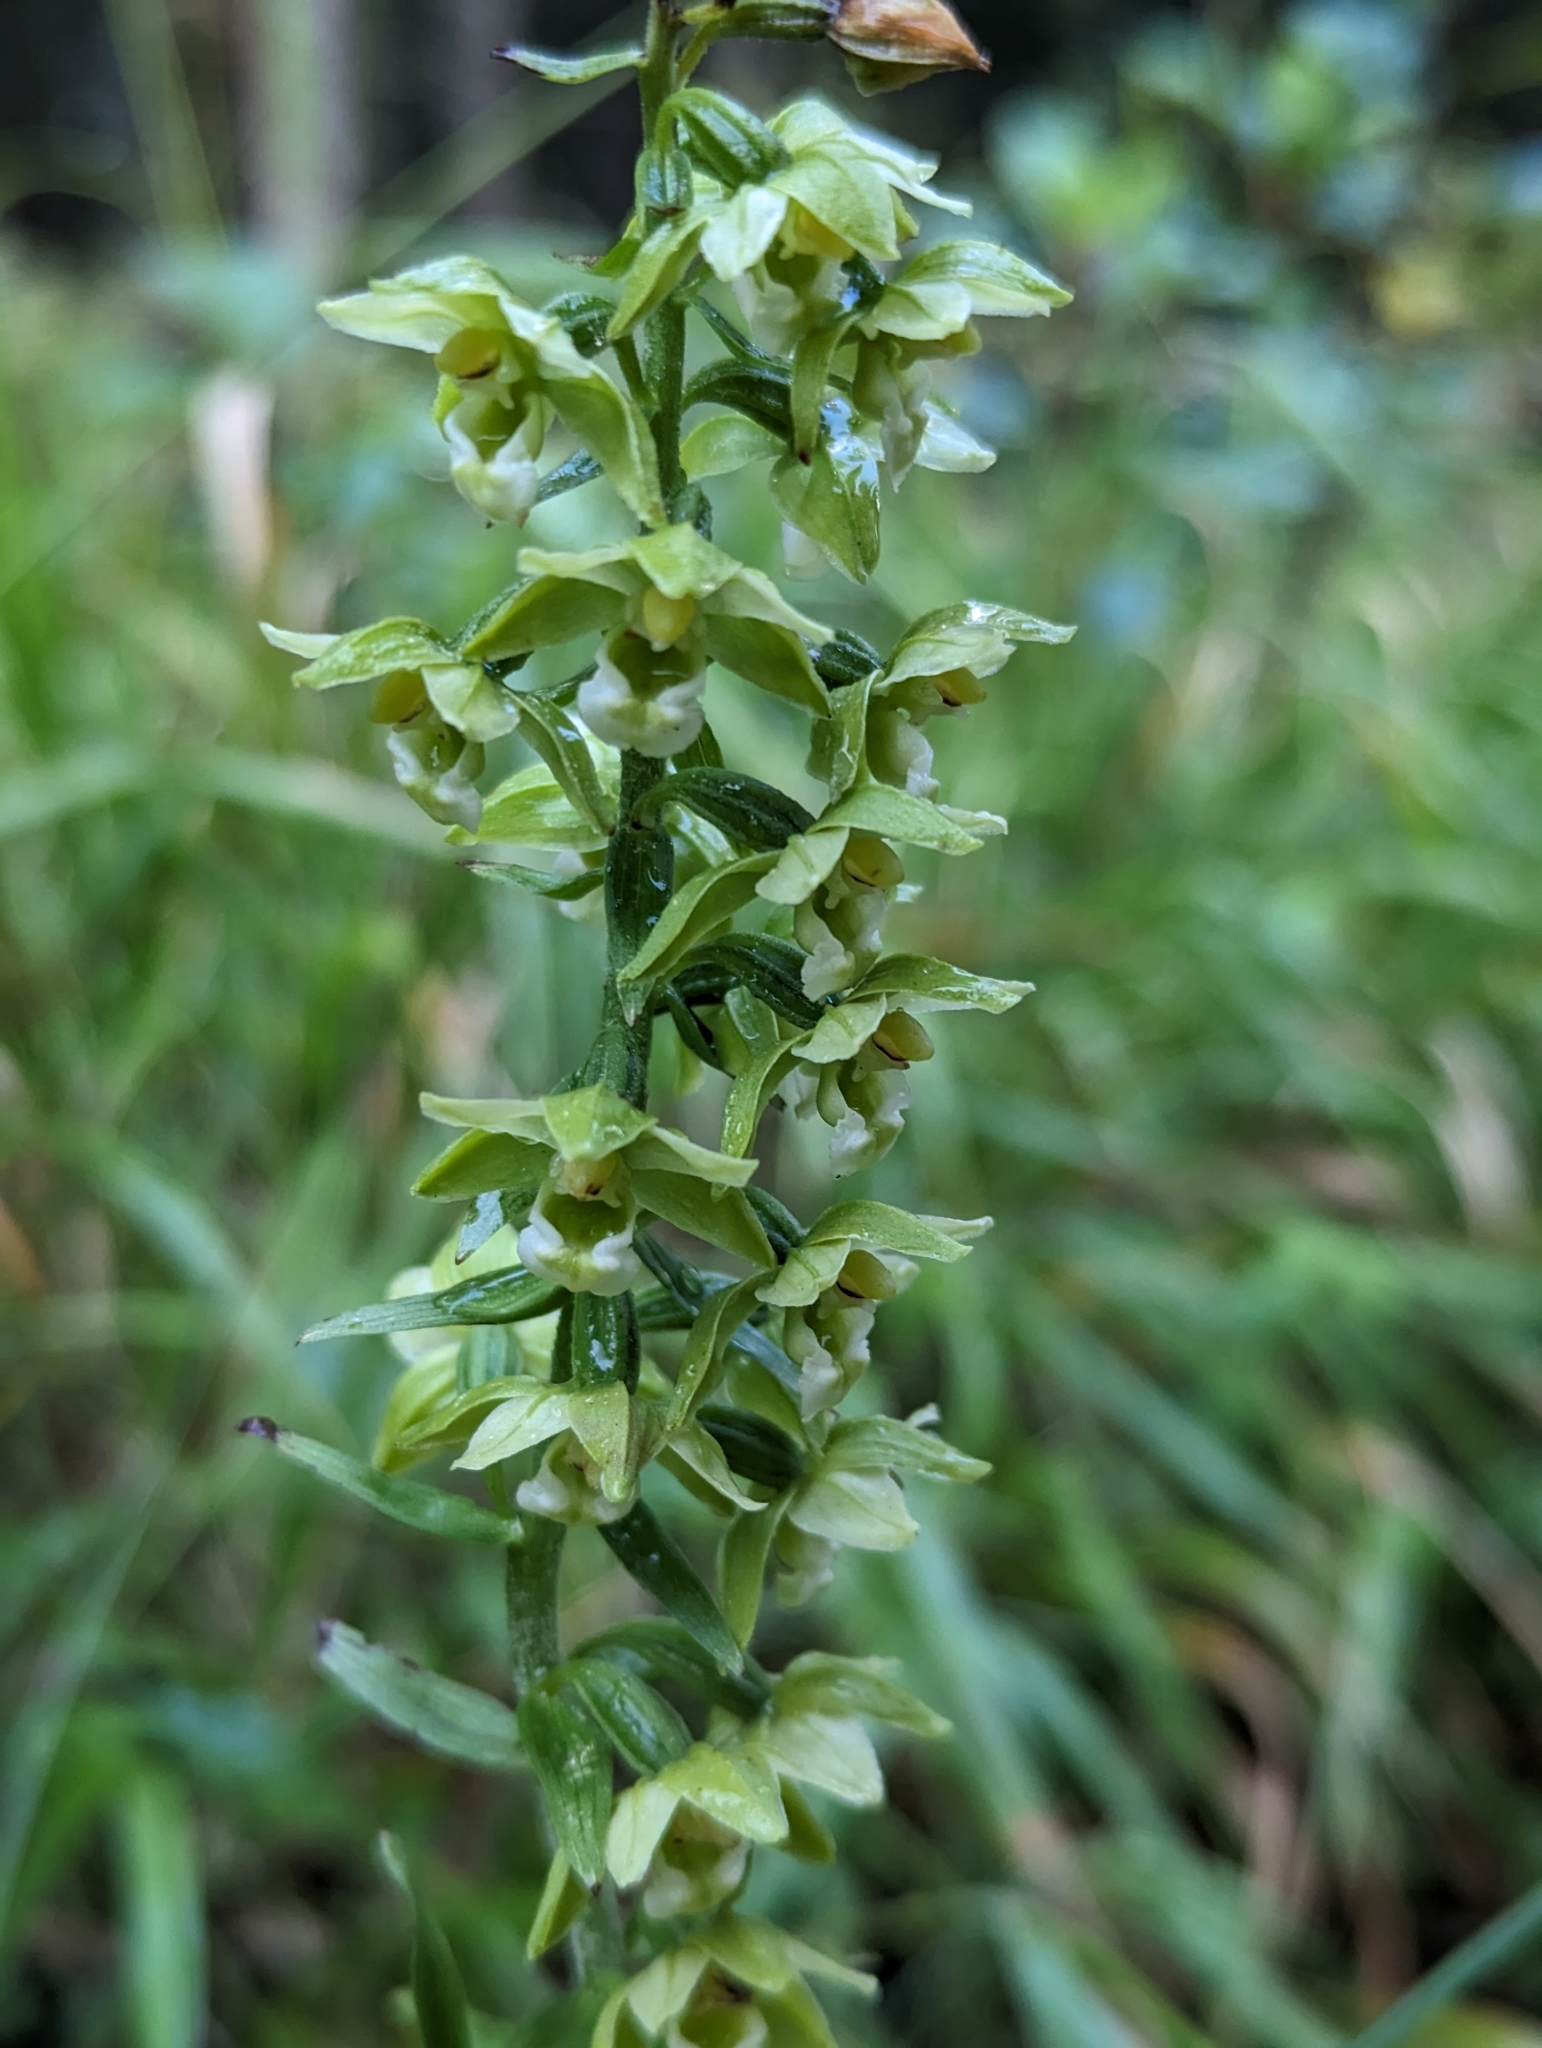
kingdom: Plantae
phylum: Tracheophyta
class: Liliopsida
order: Asparagales
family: Orchidaceae
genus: Epipactis
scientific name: Epipactis helleborine
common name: Broad-leaved helleborine
